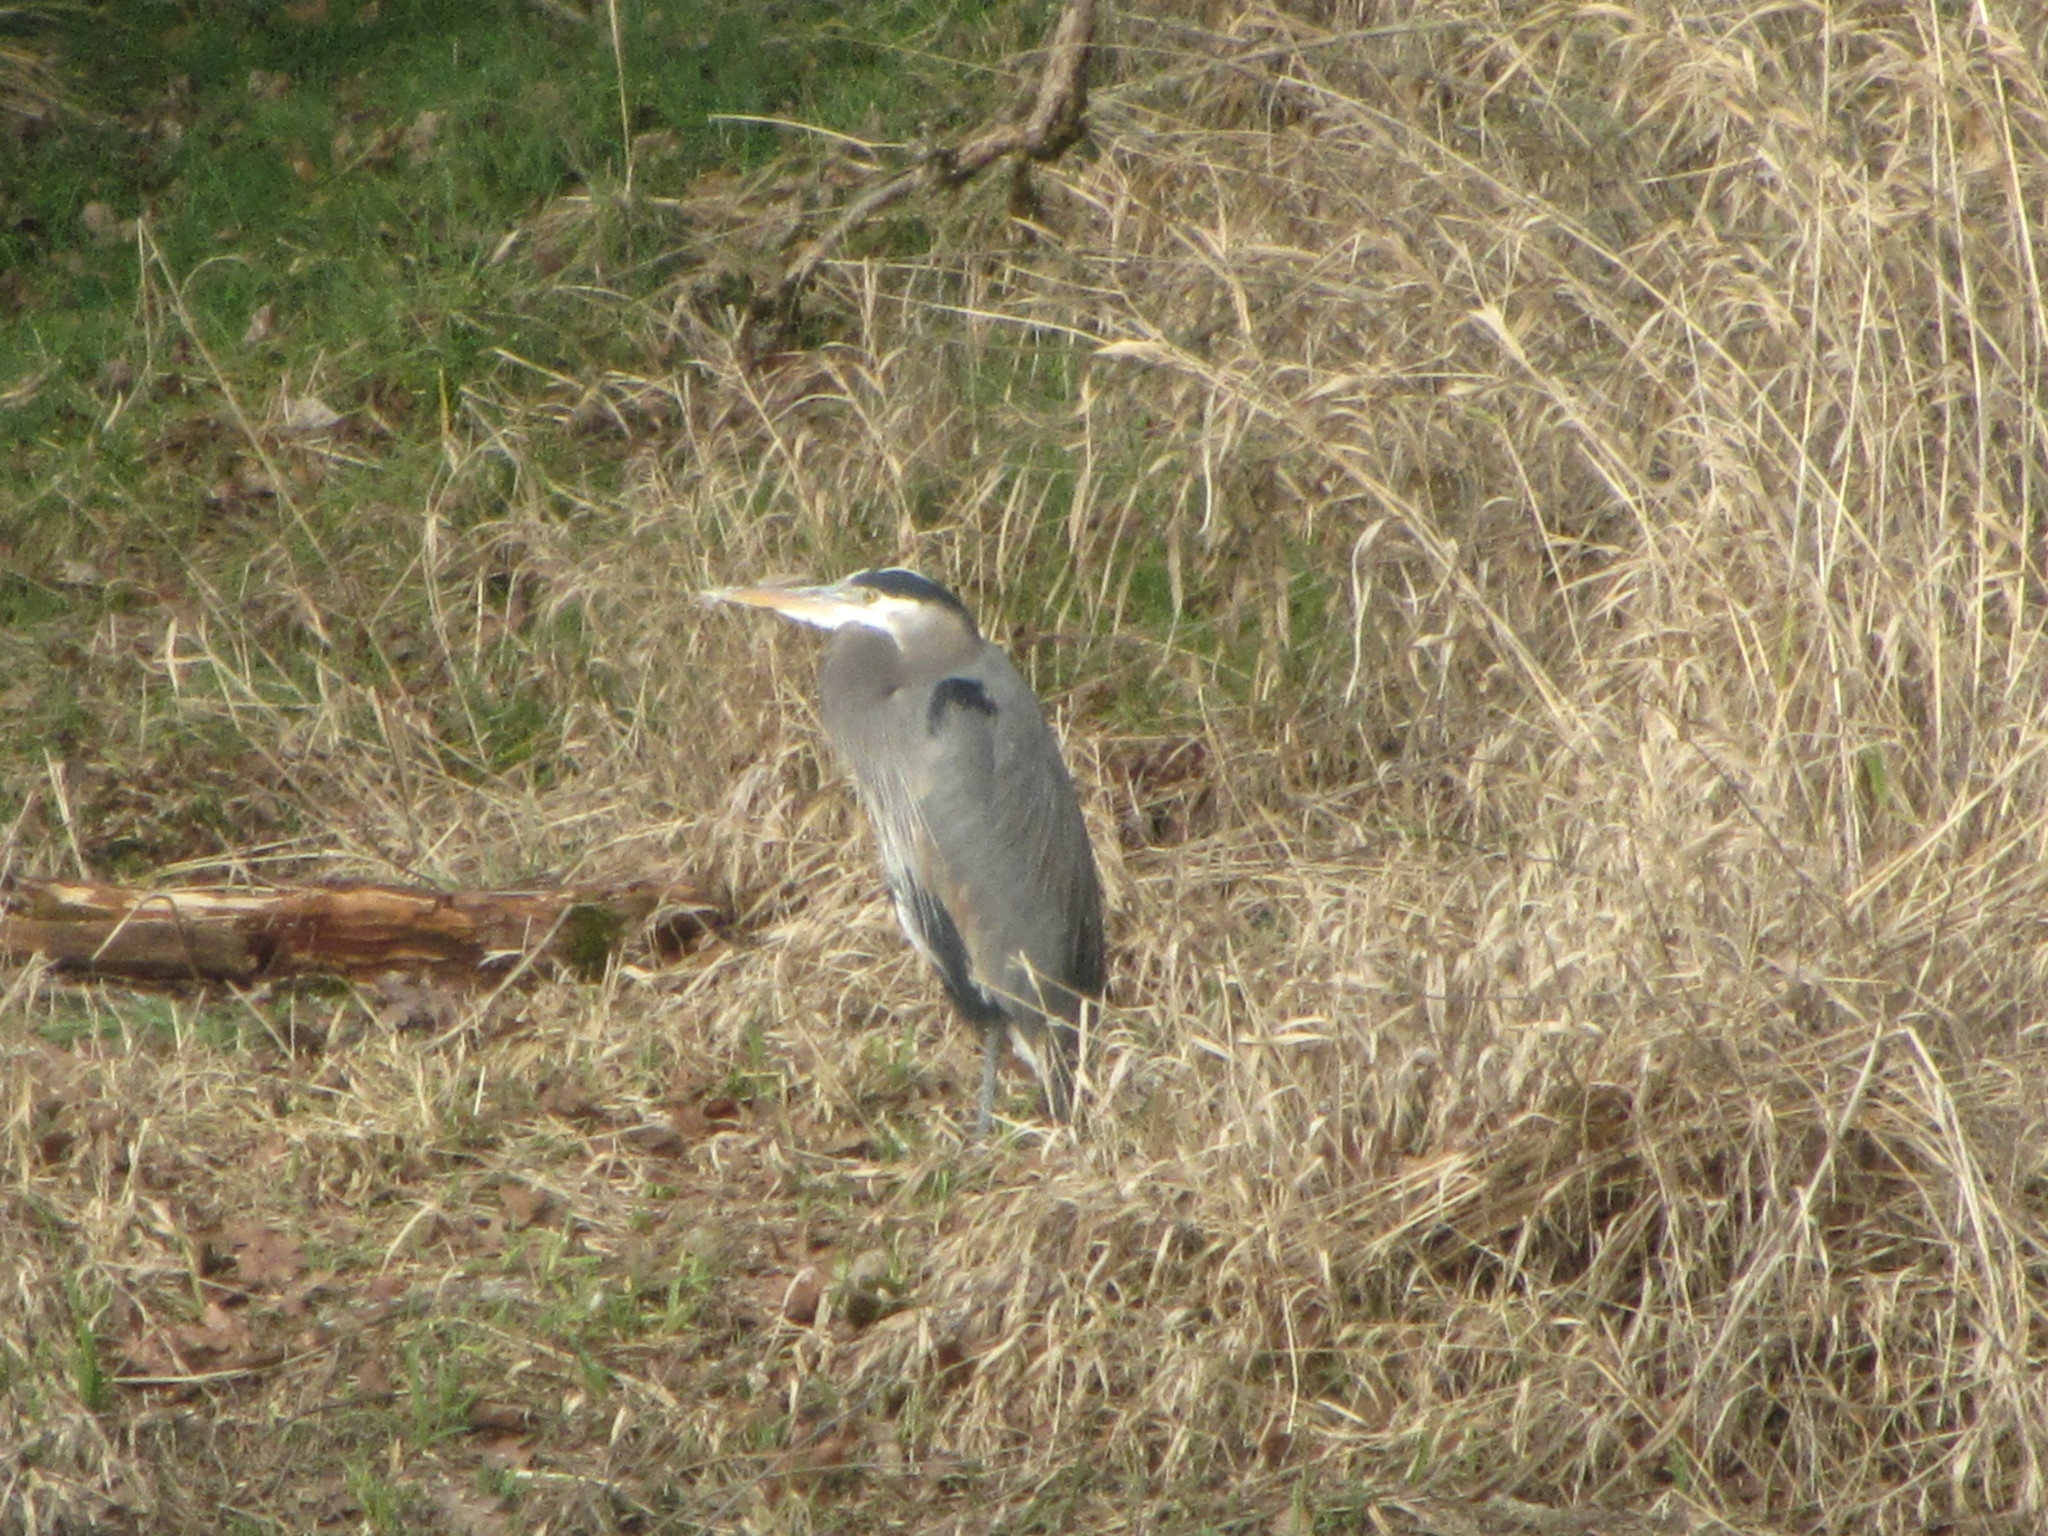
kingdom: Animalia
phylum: Chordata
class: Aves
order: Pelecaniformes
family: Ardeidae
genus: Ardea
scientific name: Ardea herodias
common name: Great blue heron
